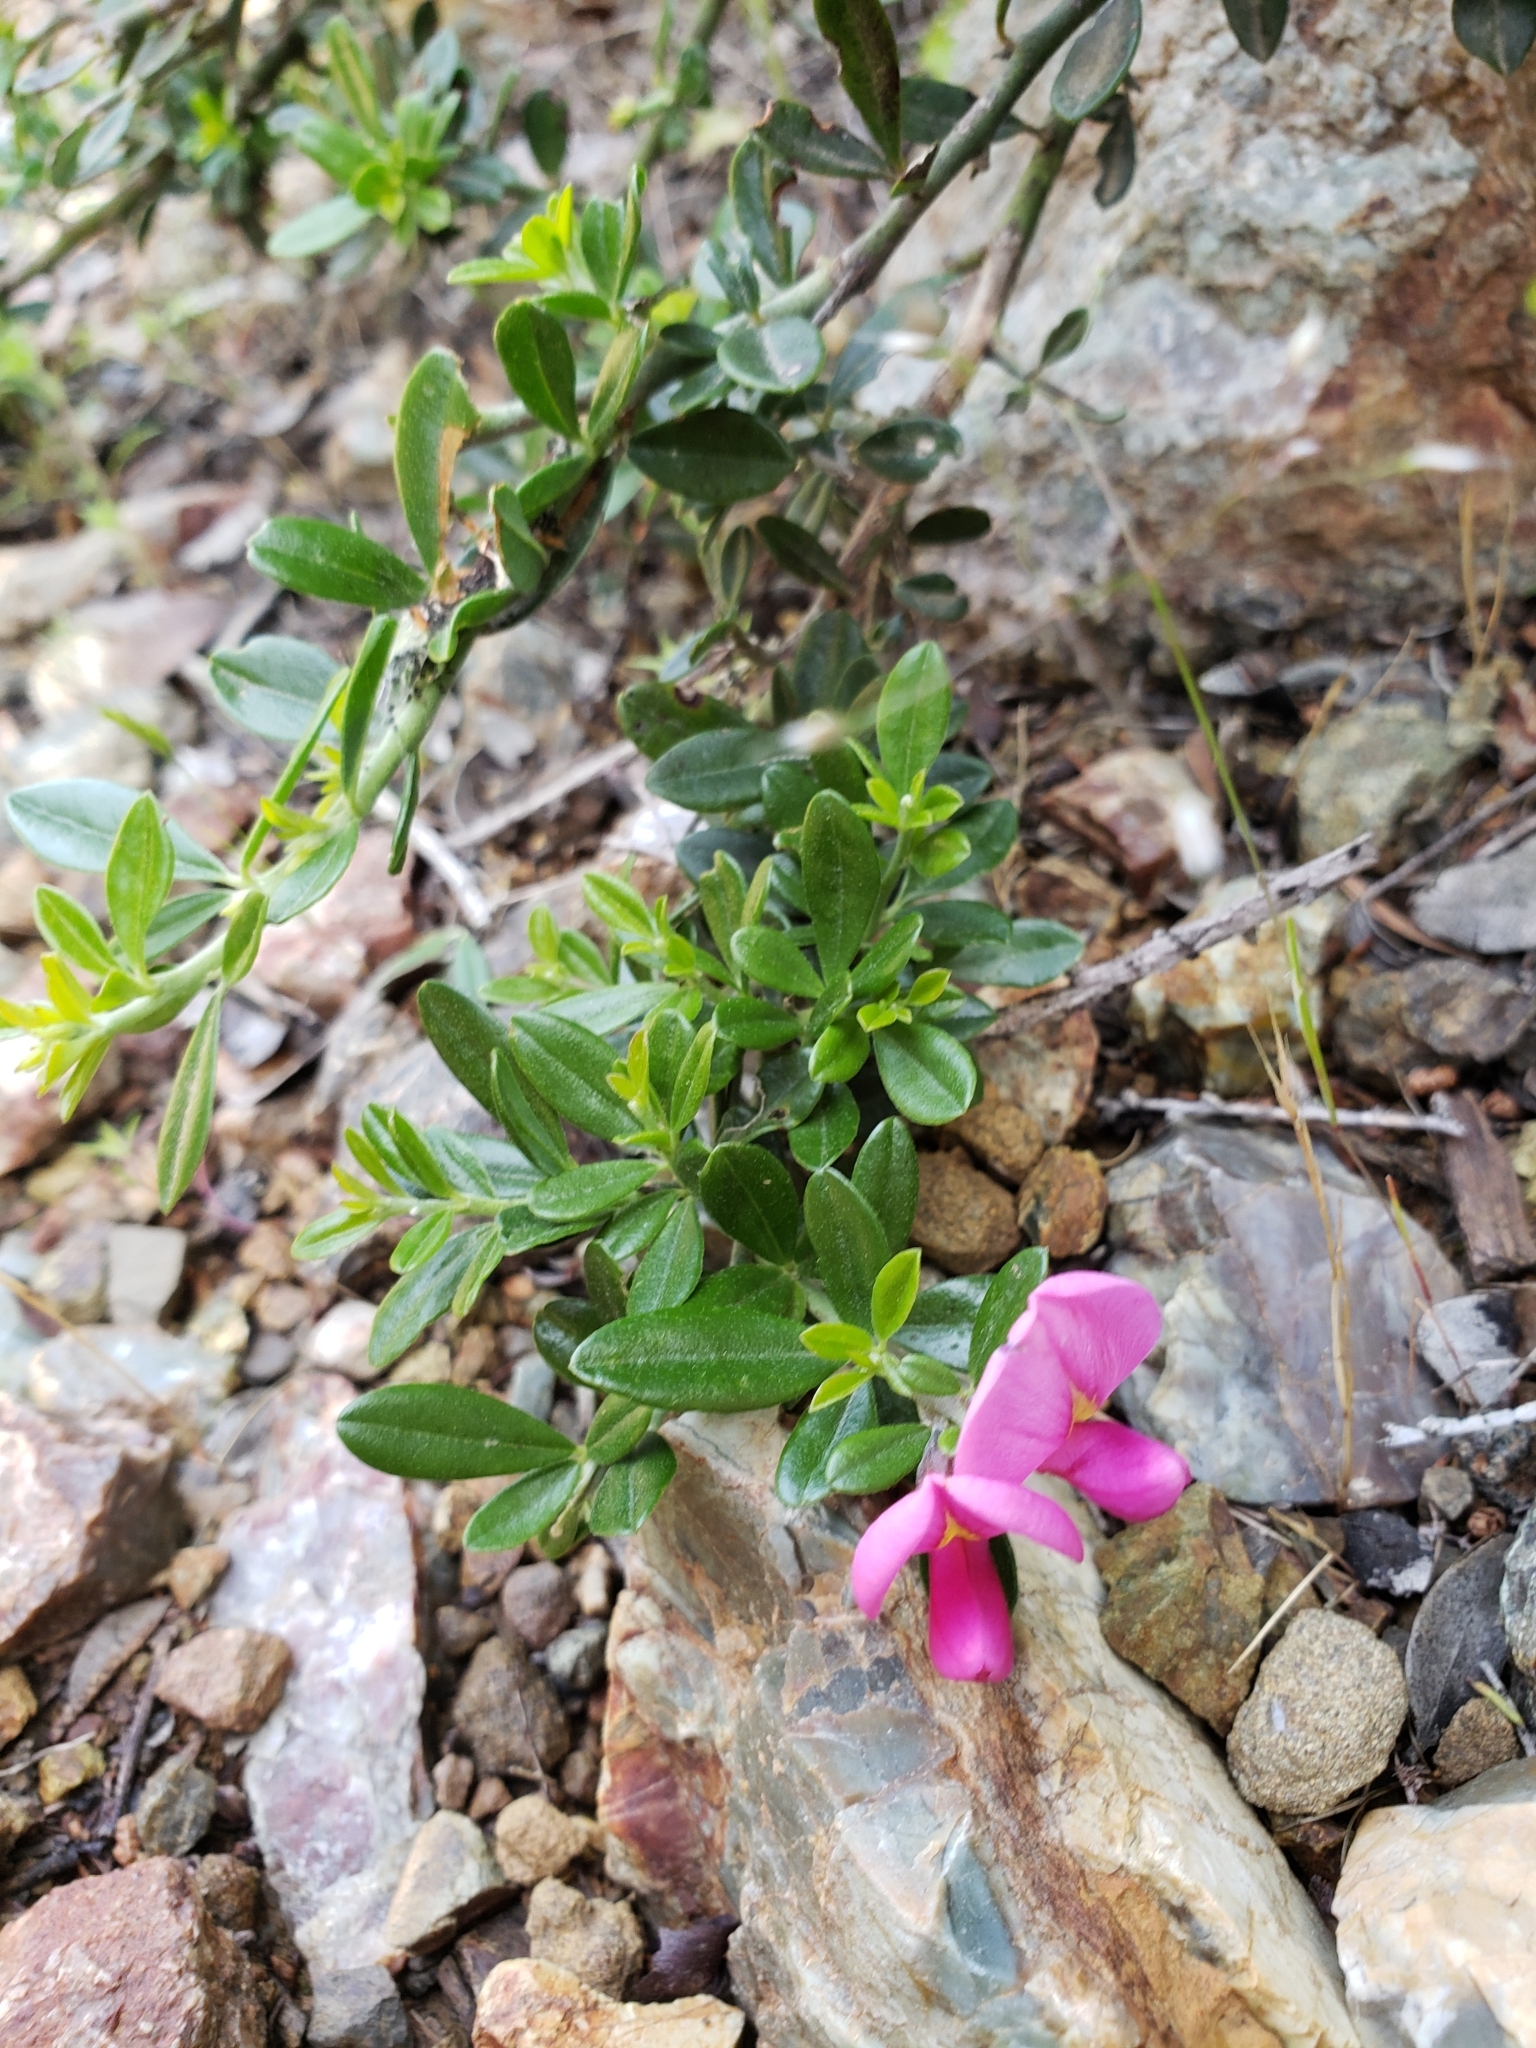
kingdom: Plantae
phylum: Tracheophyta
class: Magnoliopsida
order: Fabales
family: Fabaceae
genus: Pickeringia
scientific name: Pickeringia montana
